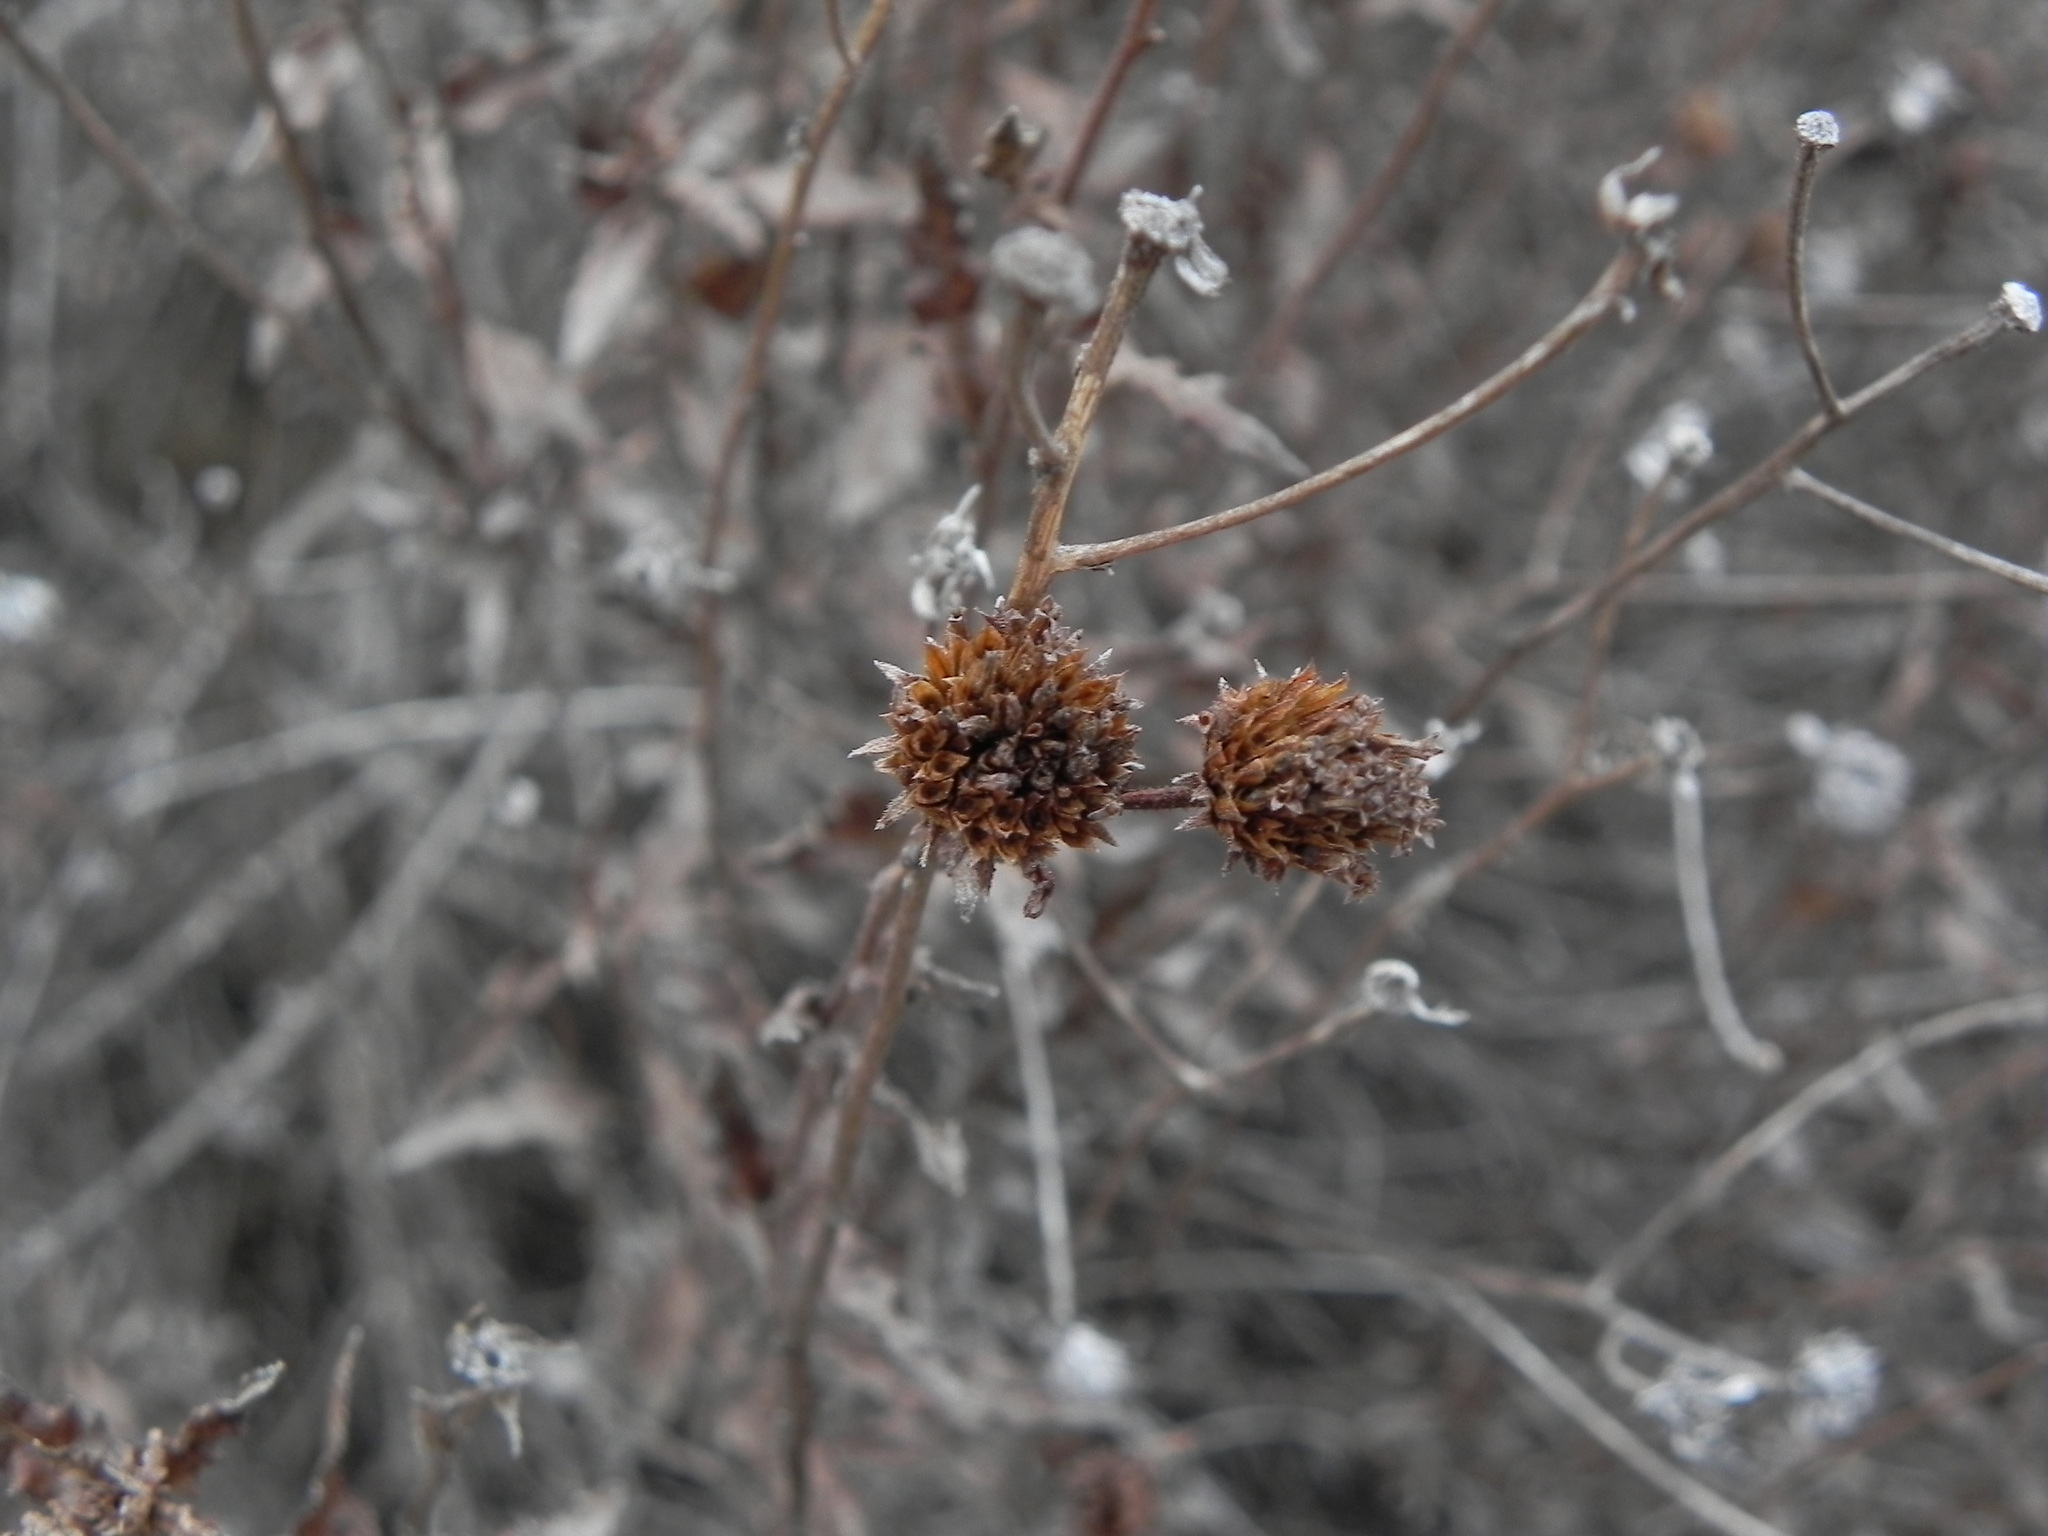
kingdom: Plantae
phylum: Tracheophyta
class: Magnoliopsida
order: Asterales
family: Asteraceae
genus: Bahiopsis
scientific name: Bahiopsis laciniata
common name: San diego county viguiera
